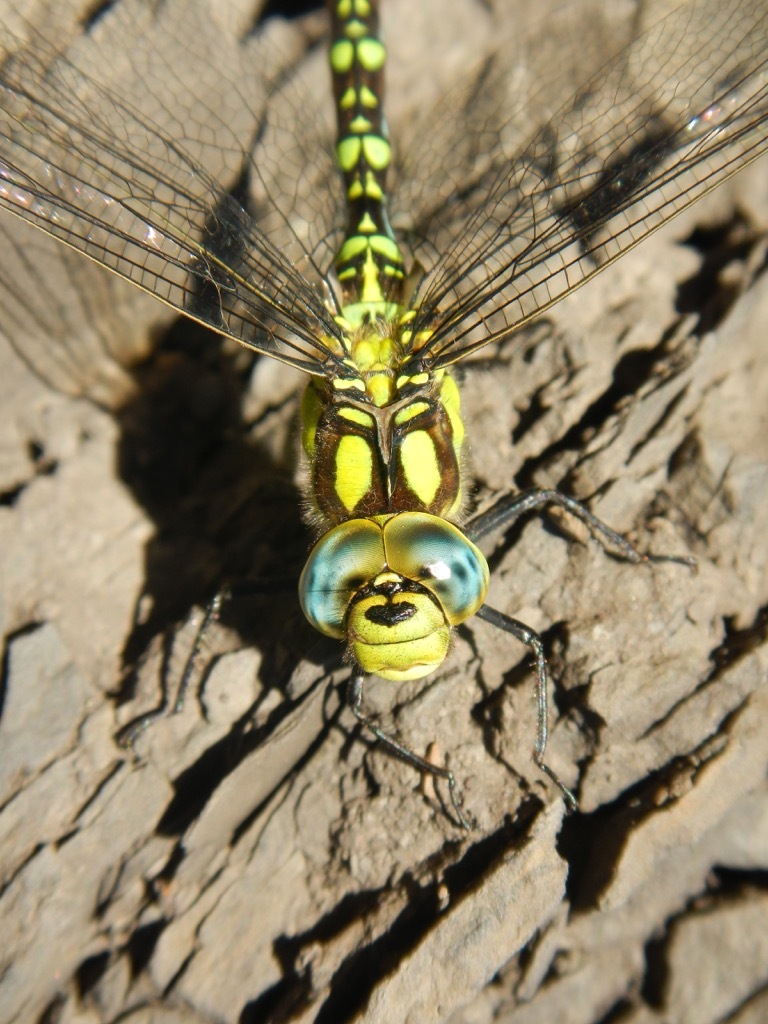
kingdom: Animalia
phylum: Arthropoda
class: Insecta
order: Odonata
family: Aeshnidae
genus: Aeshna
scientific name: Aeshna cyanea
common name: Southern hawker
